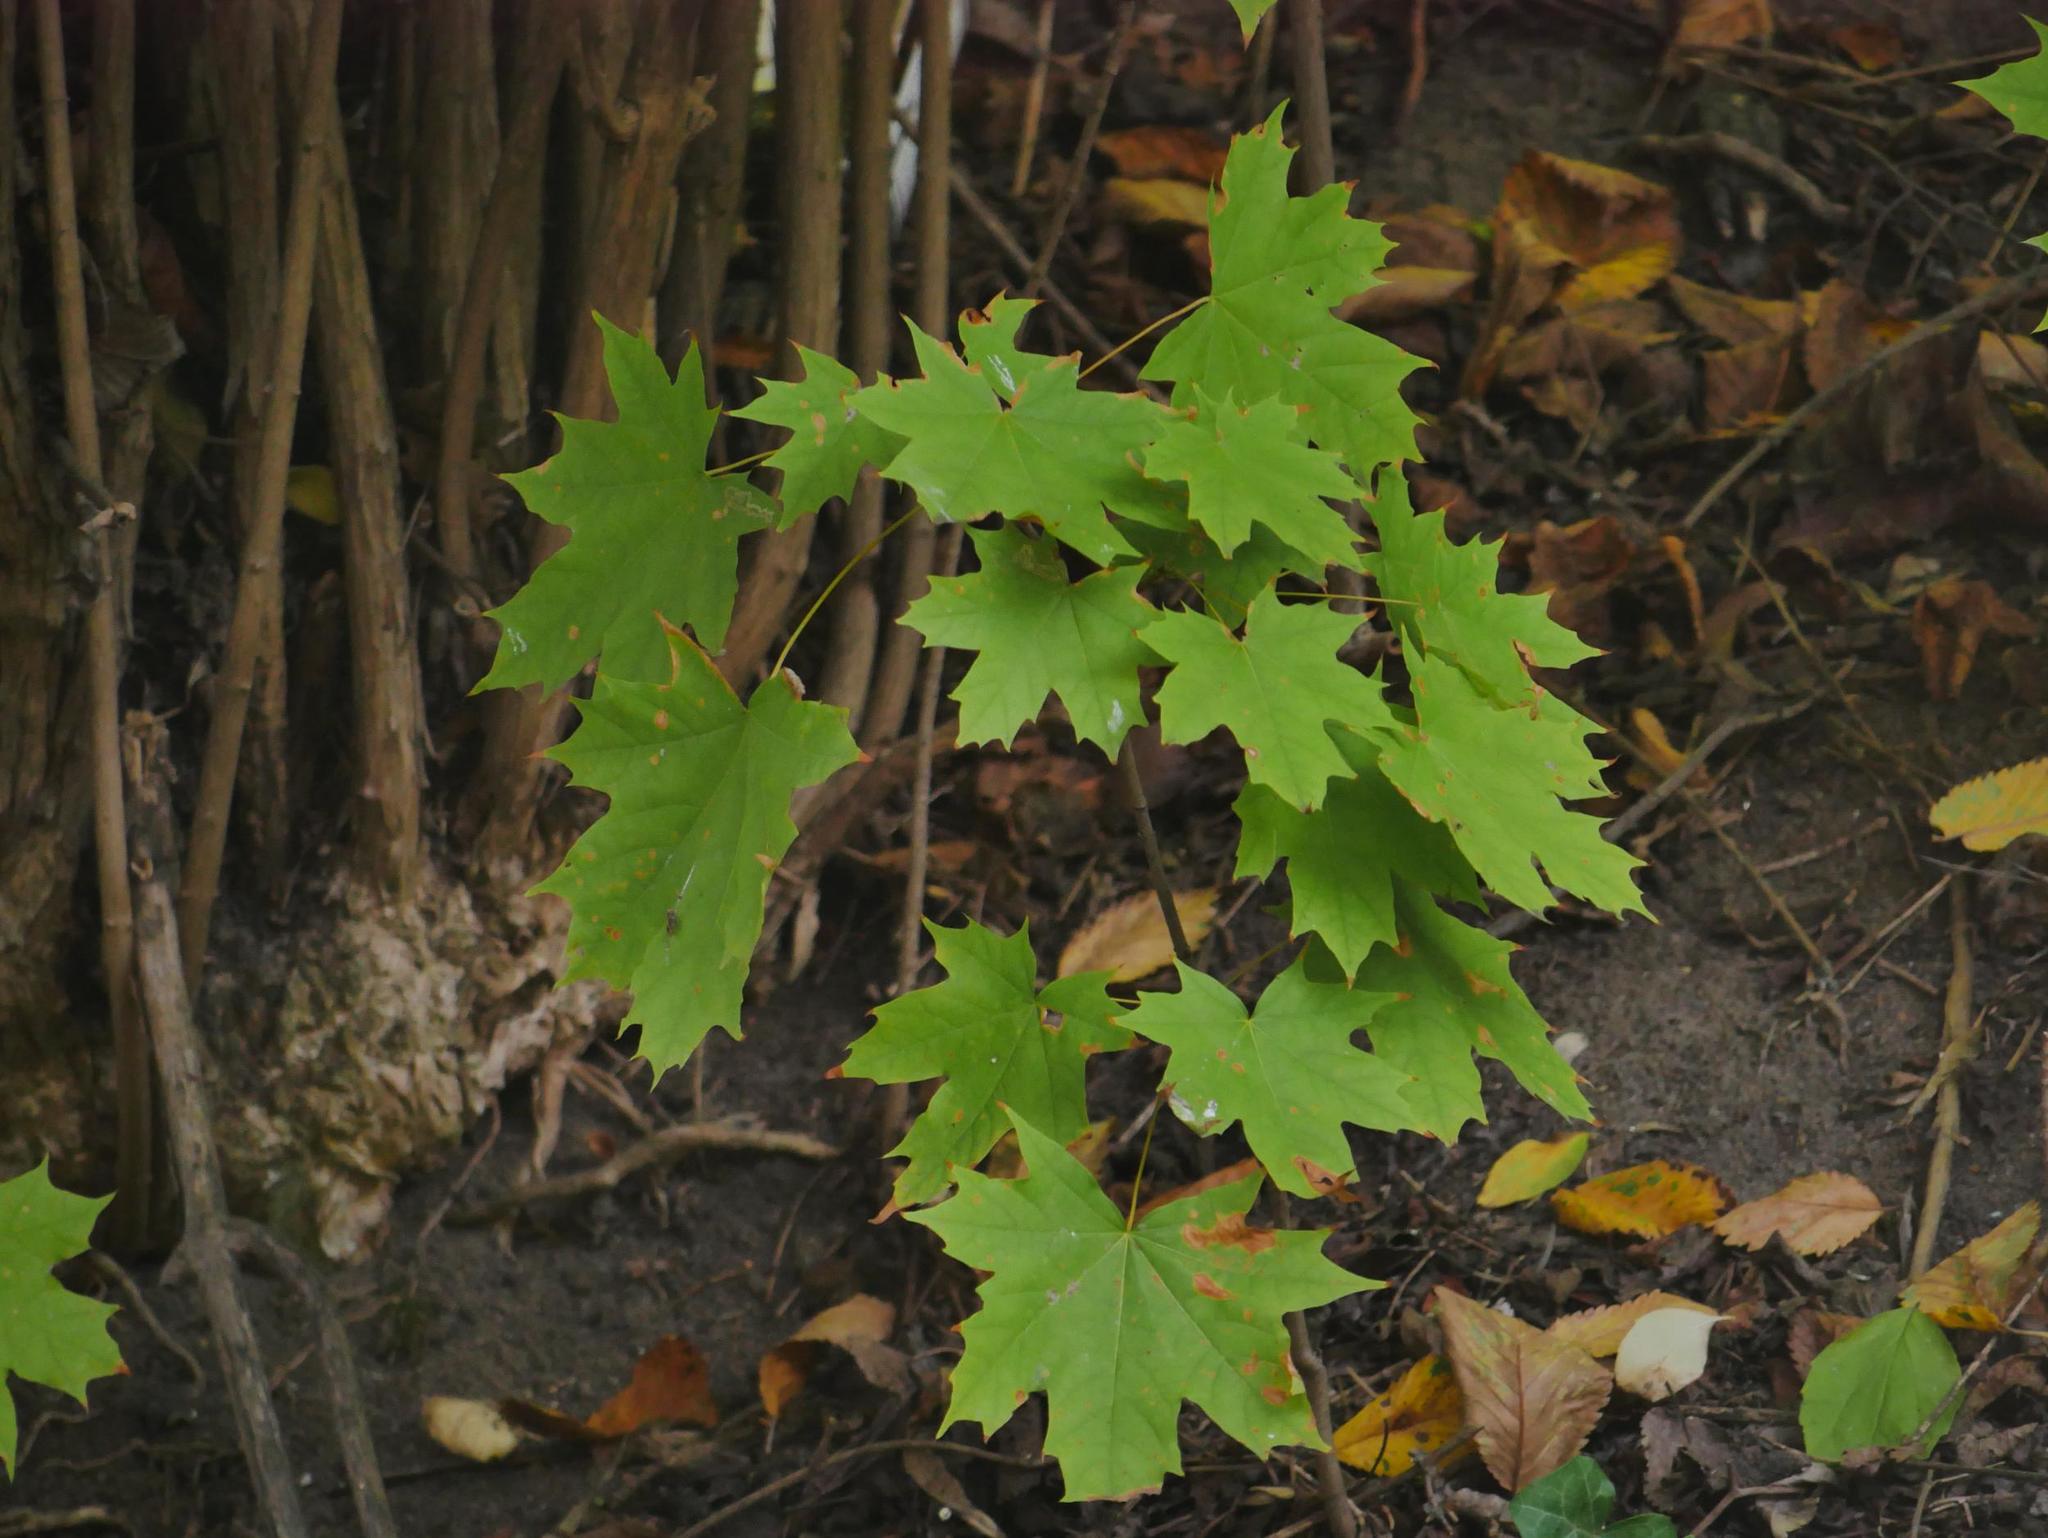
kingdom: Plantae
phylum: Tracheophyta
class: Magnoliopsida
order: Sapindales
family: Sapindaceae
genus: Acer
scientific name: Acer platanoides
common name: Norway maple
